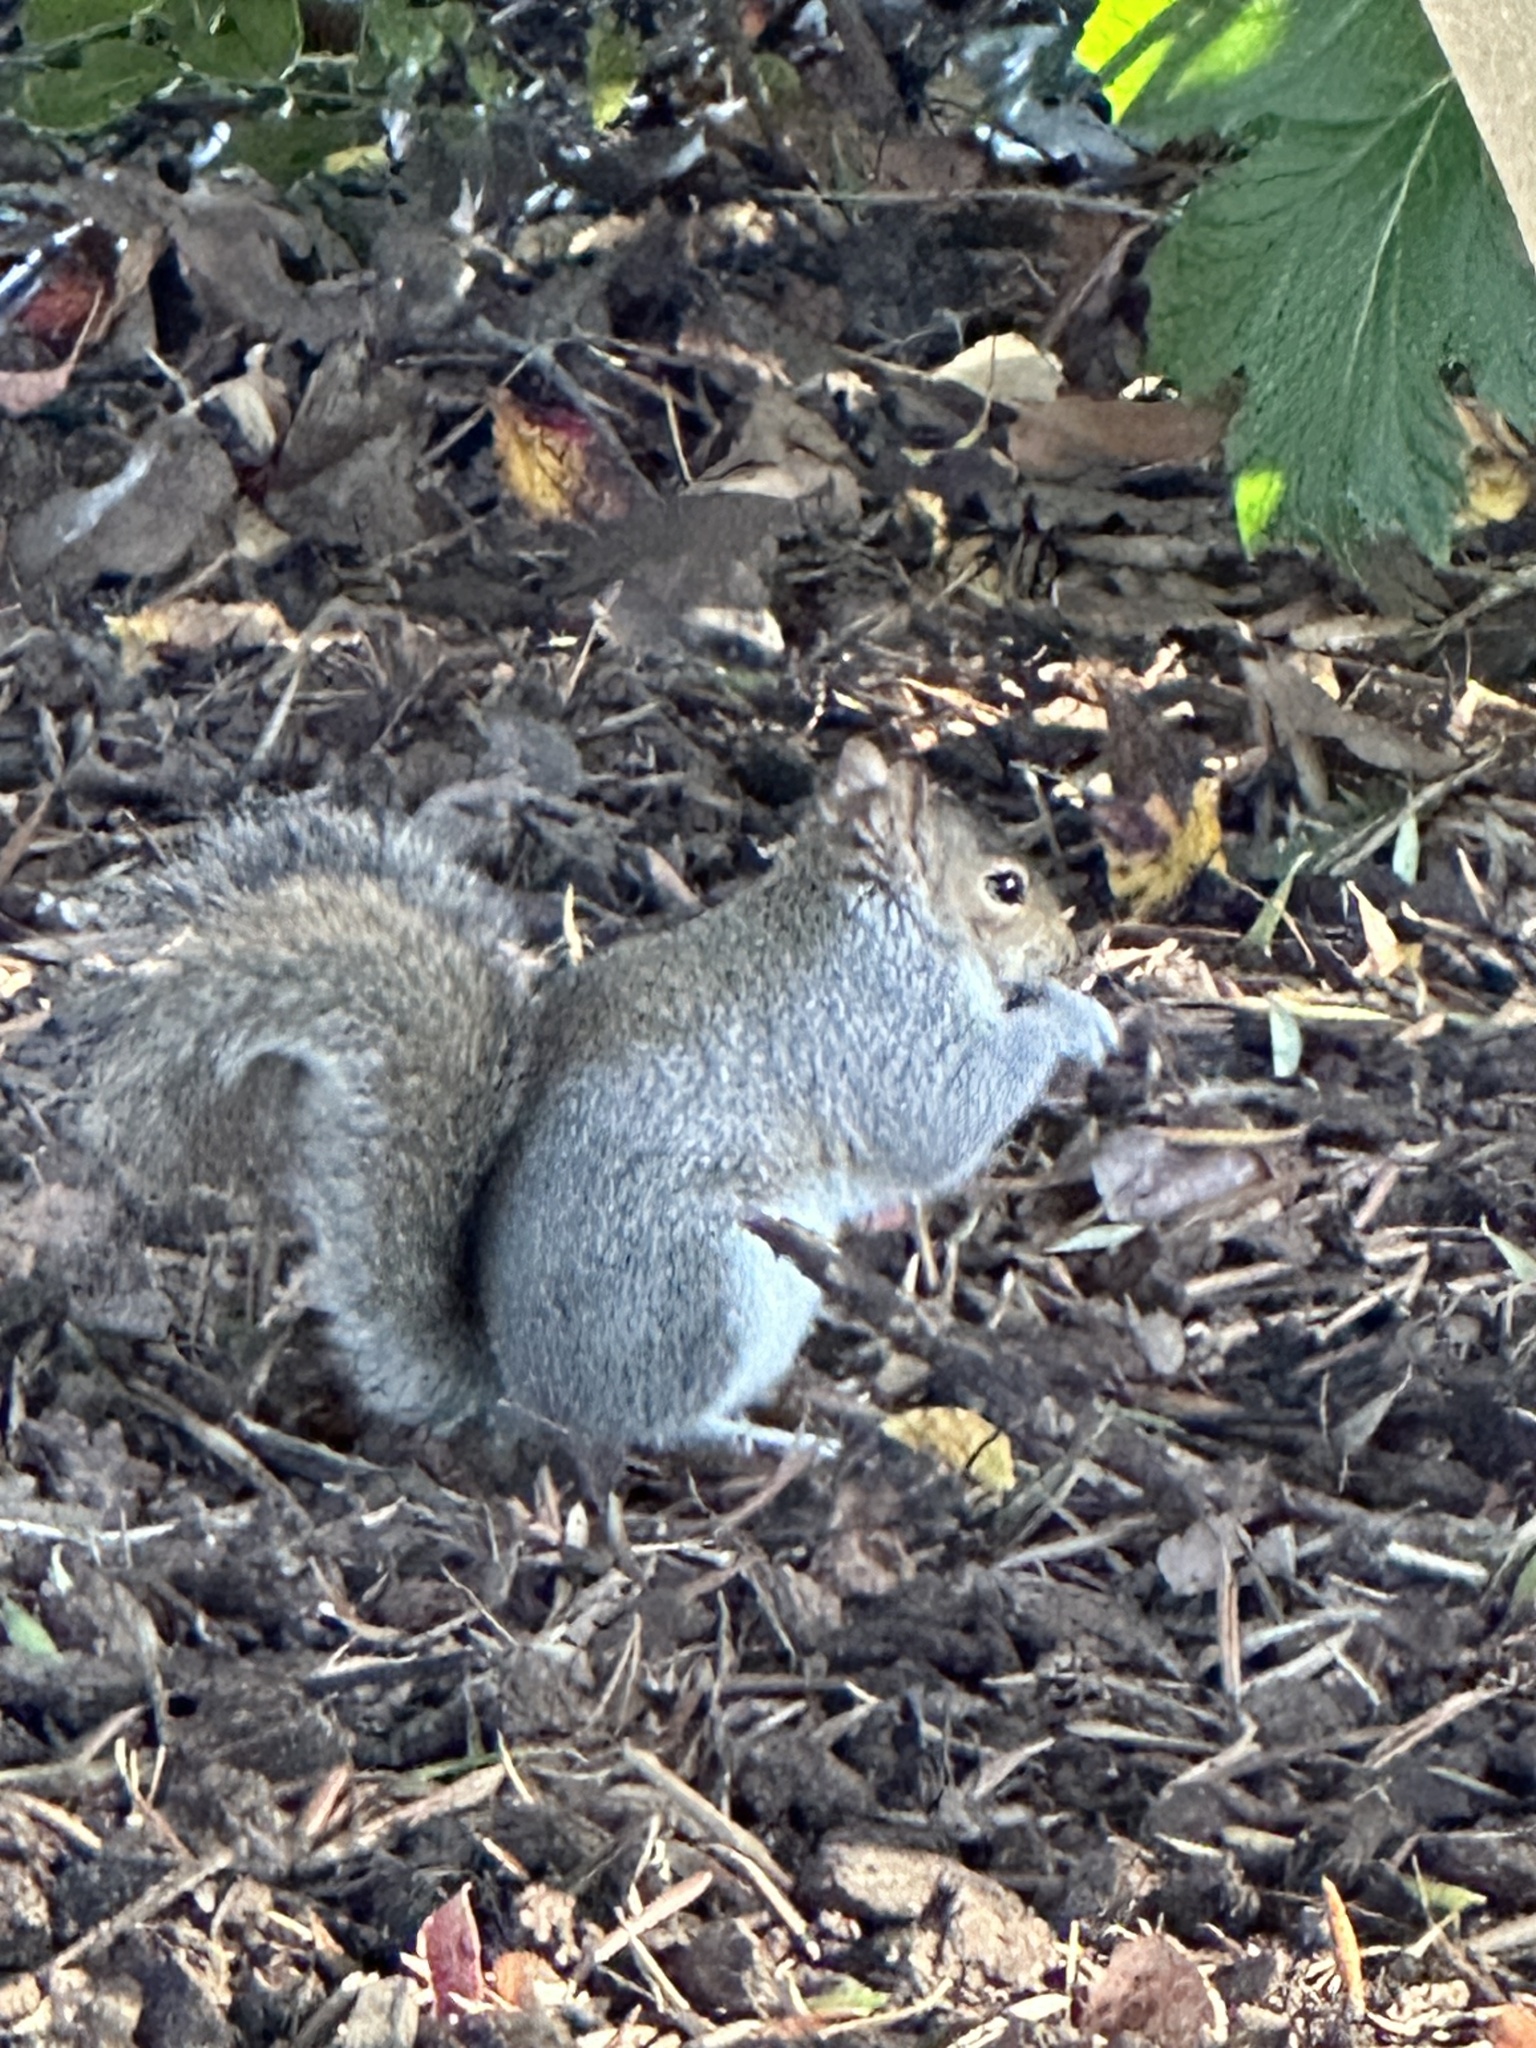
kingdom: Animalia
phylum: Chordata
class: Mammalia
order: Rodentia
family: Sciuridae
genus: Sciurus
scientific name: Sciurus carolinensis
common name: Eastern gray squirrel
